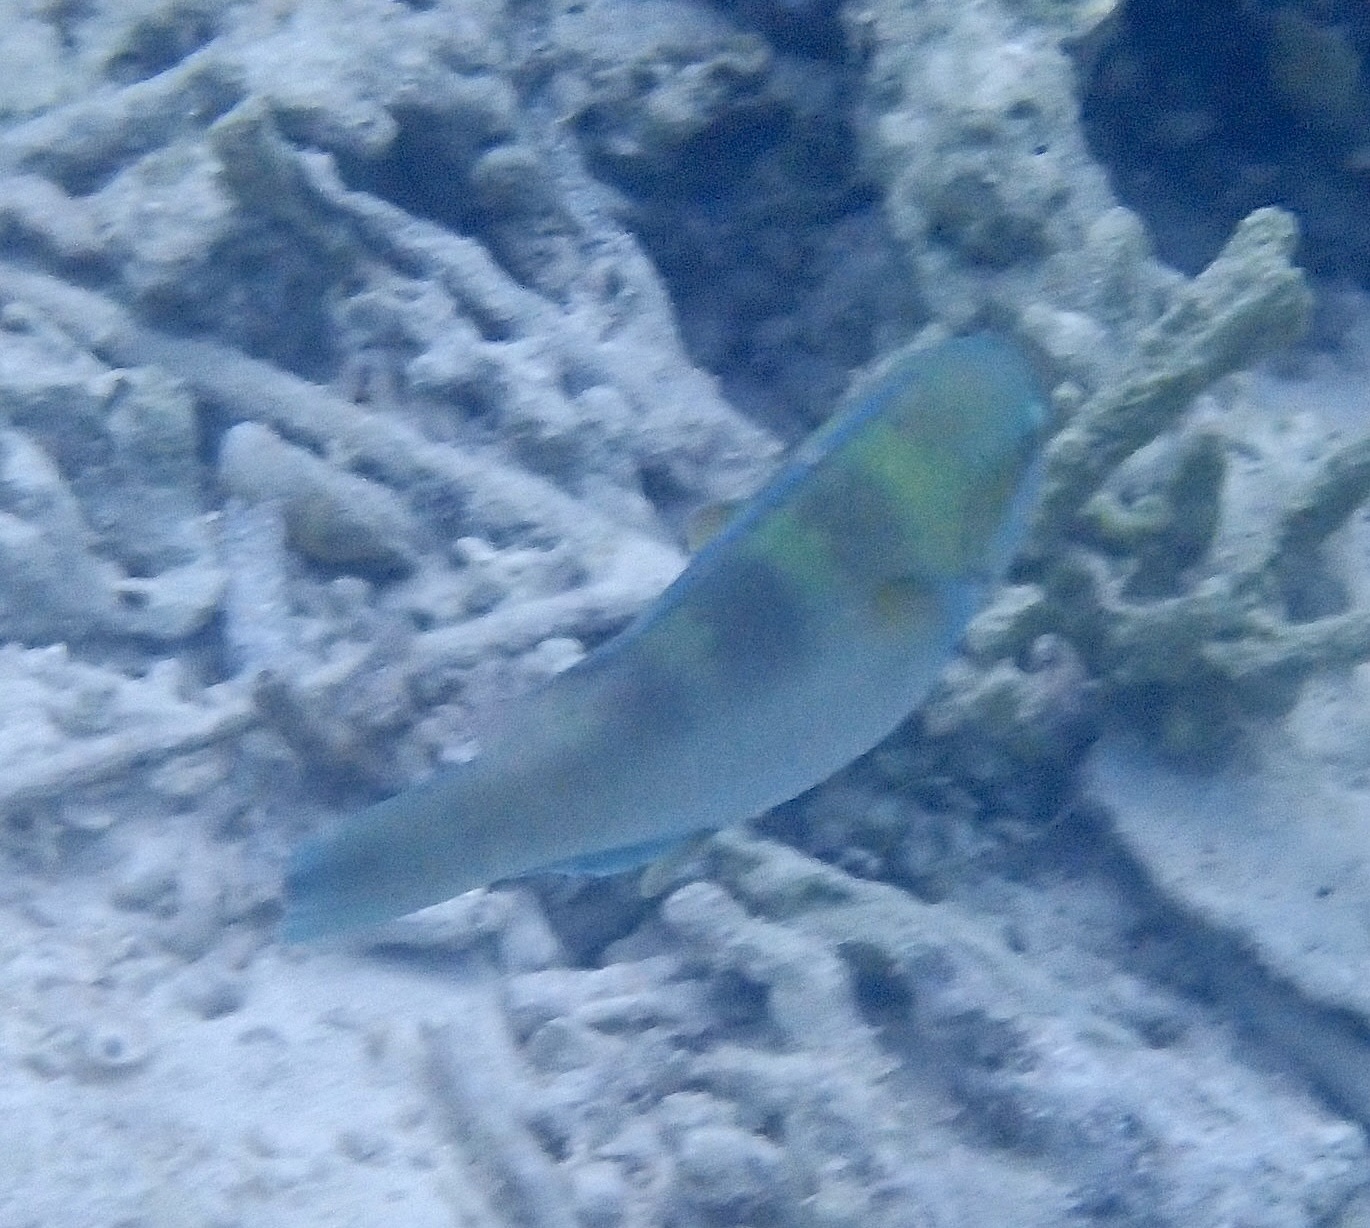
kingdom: Animalia
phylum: Chordata
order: Perciformes
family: Scaridae
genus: Scarus
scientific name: Scarus dimidiatus
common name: Yellowbarred parrotfish
